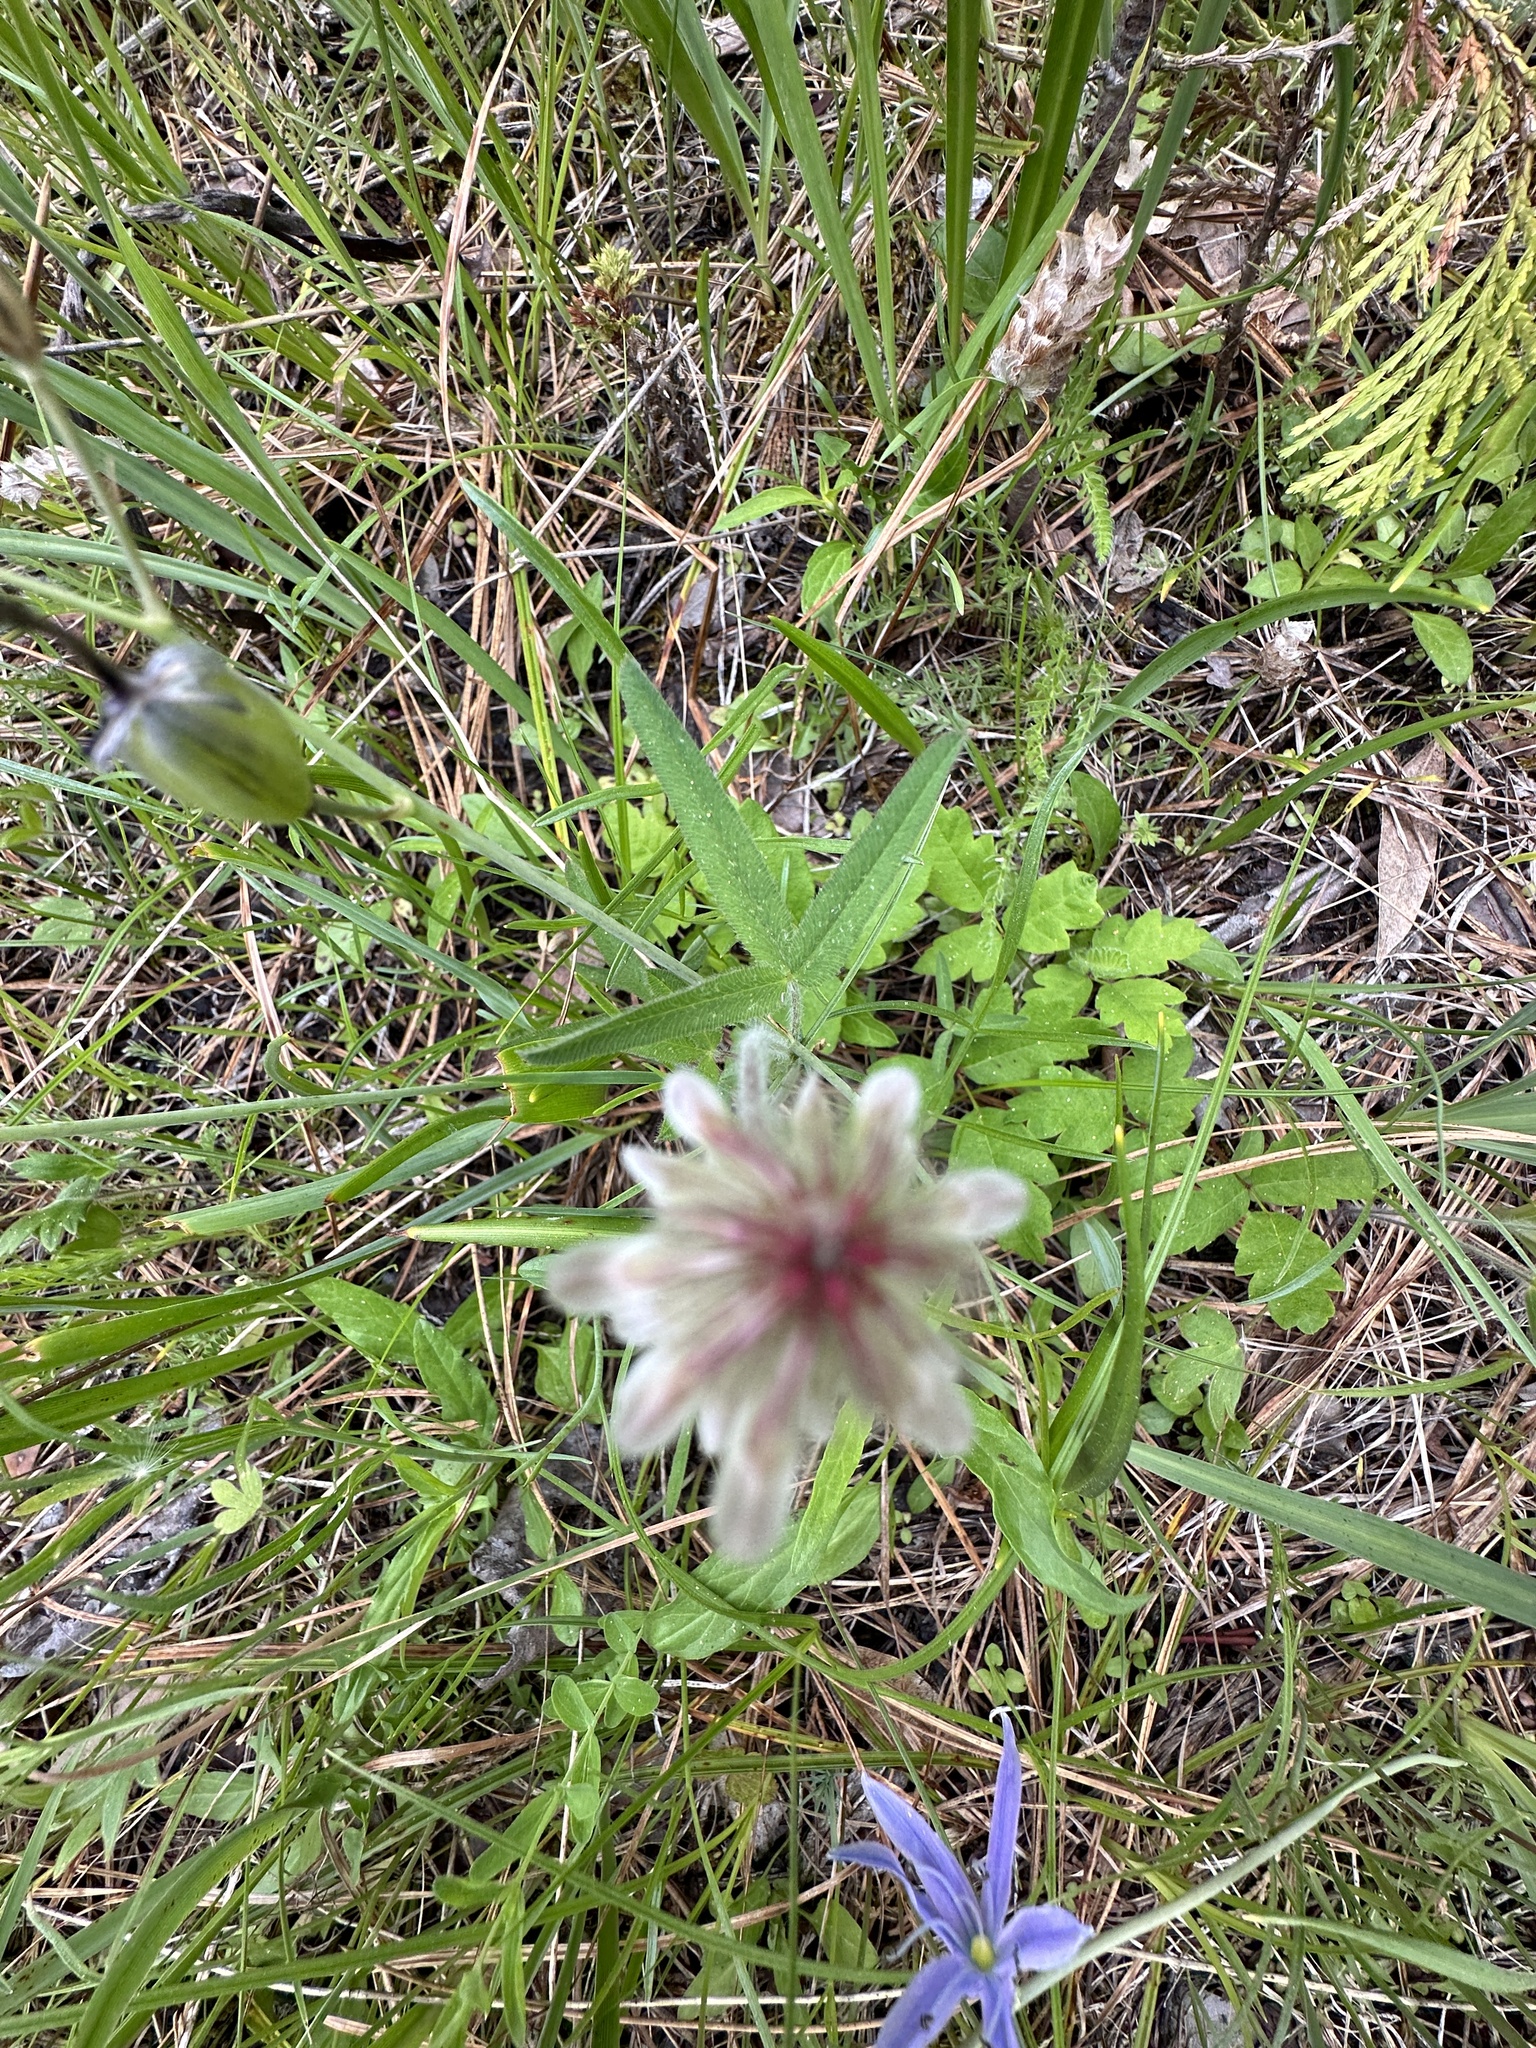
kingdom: Plantae
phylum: Tracheophyta
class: Magnoliopsida
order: Fabales
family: Fabaceae
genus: Trifolium
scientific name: Trifolium eriocephalum
